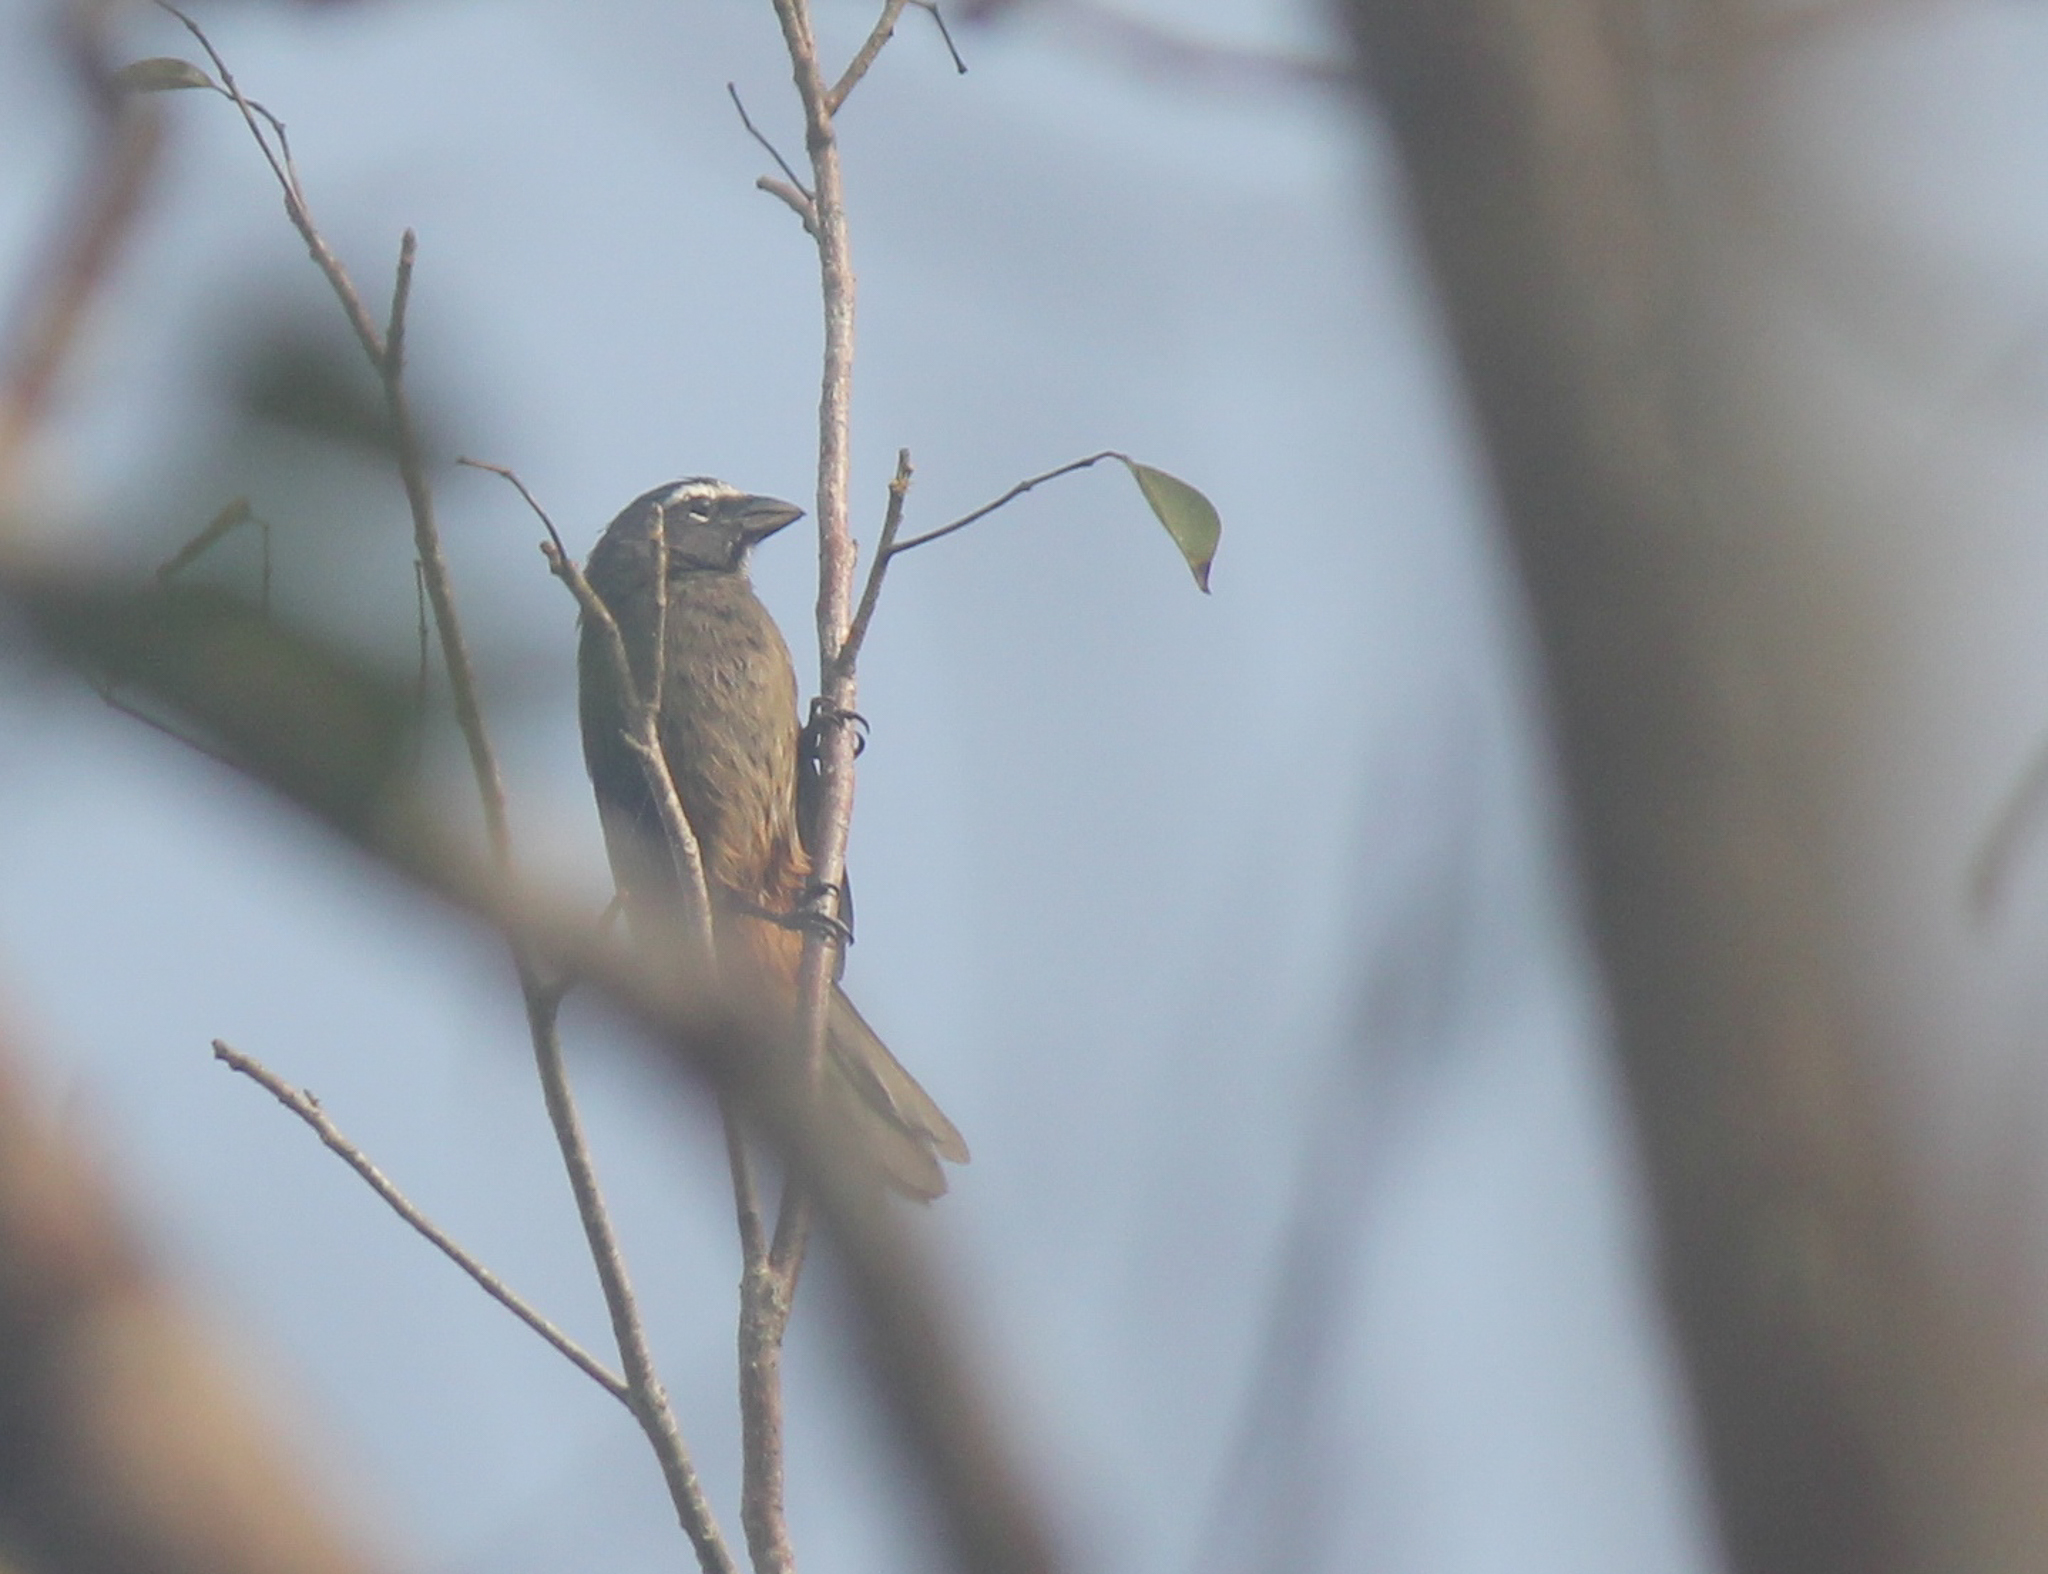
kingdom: Animalia
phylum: Chordata
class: Aves
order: Passeriformes
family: Thraupidae
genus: Saltator
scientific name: Saltator grandis
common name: Cinnamon-bellied saltator
